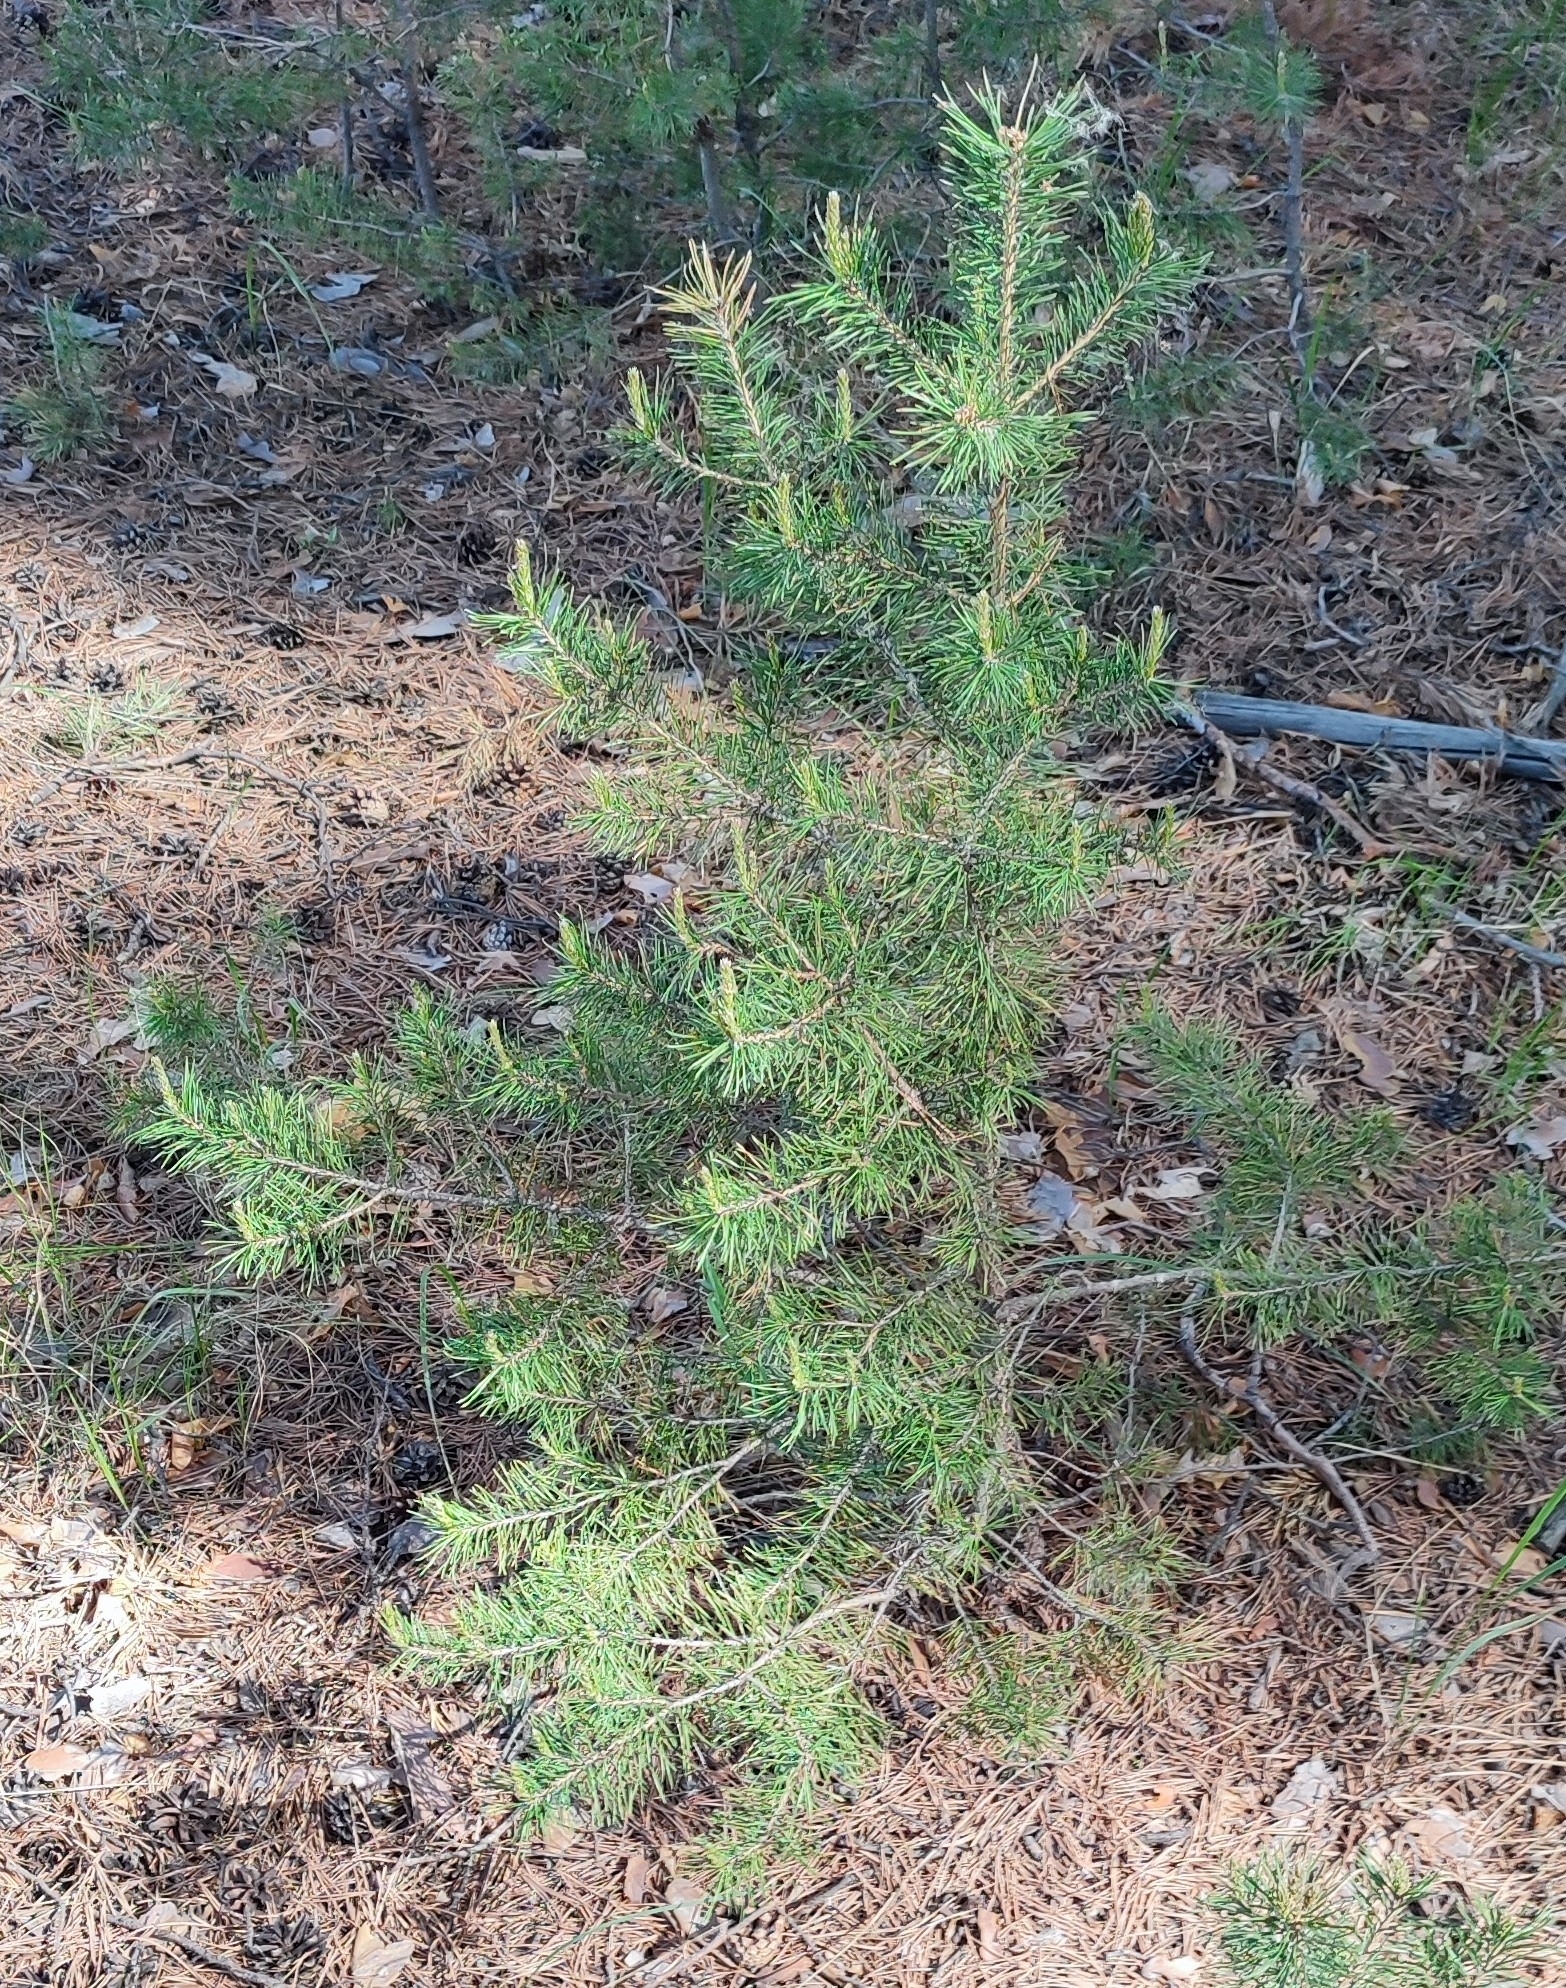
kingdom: Plantae
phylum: Tracheophyta
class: Pinopsida
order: Pinales
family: Pinaceae
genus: Pinus
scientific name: Pinus sylvestris
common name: Scots pine
